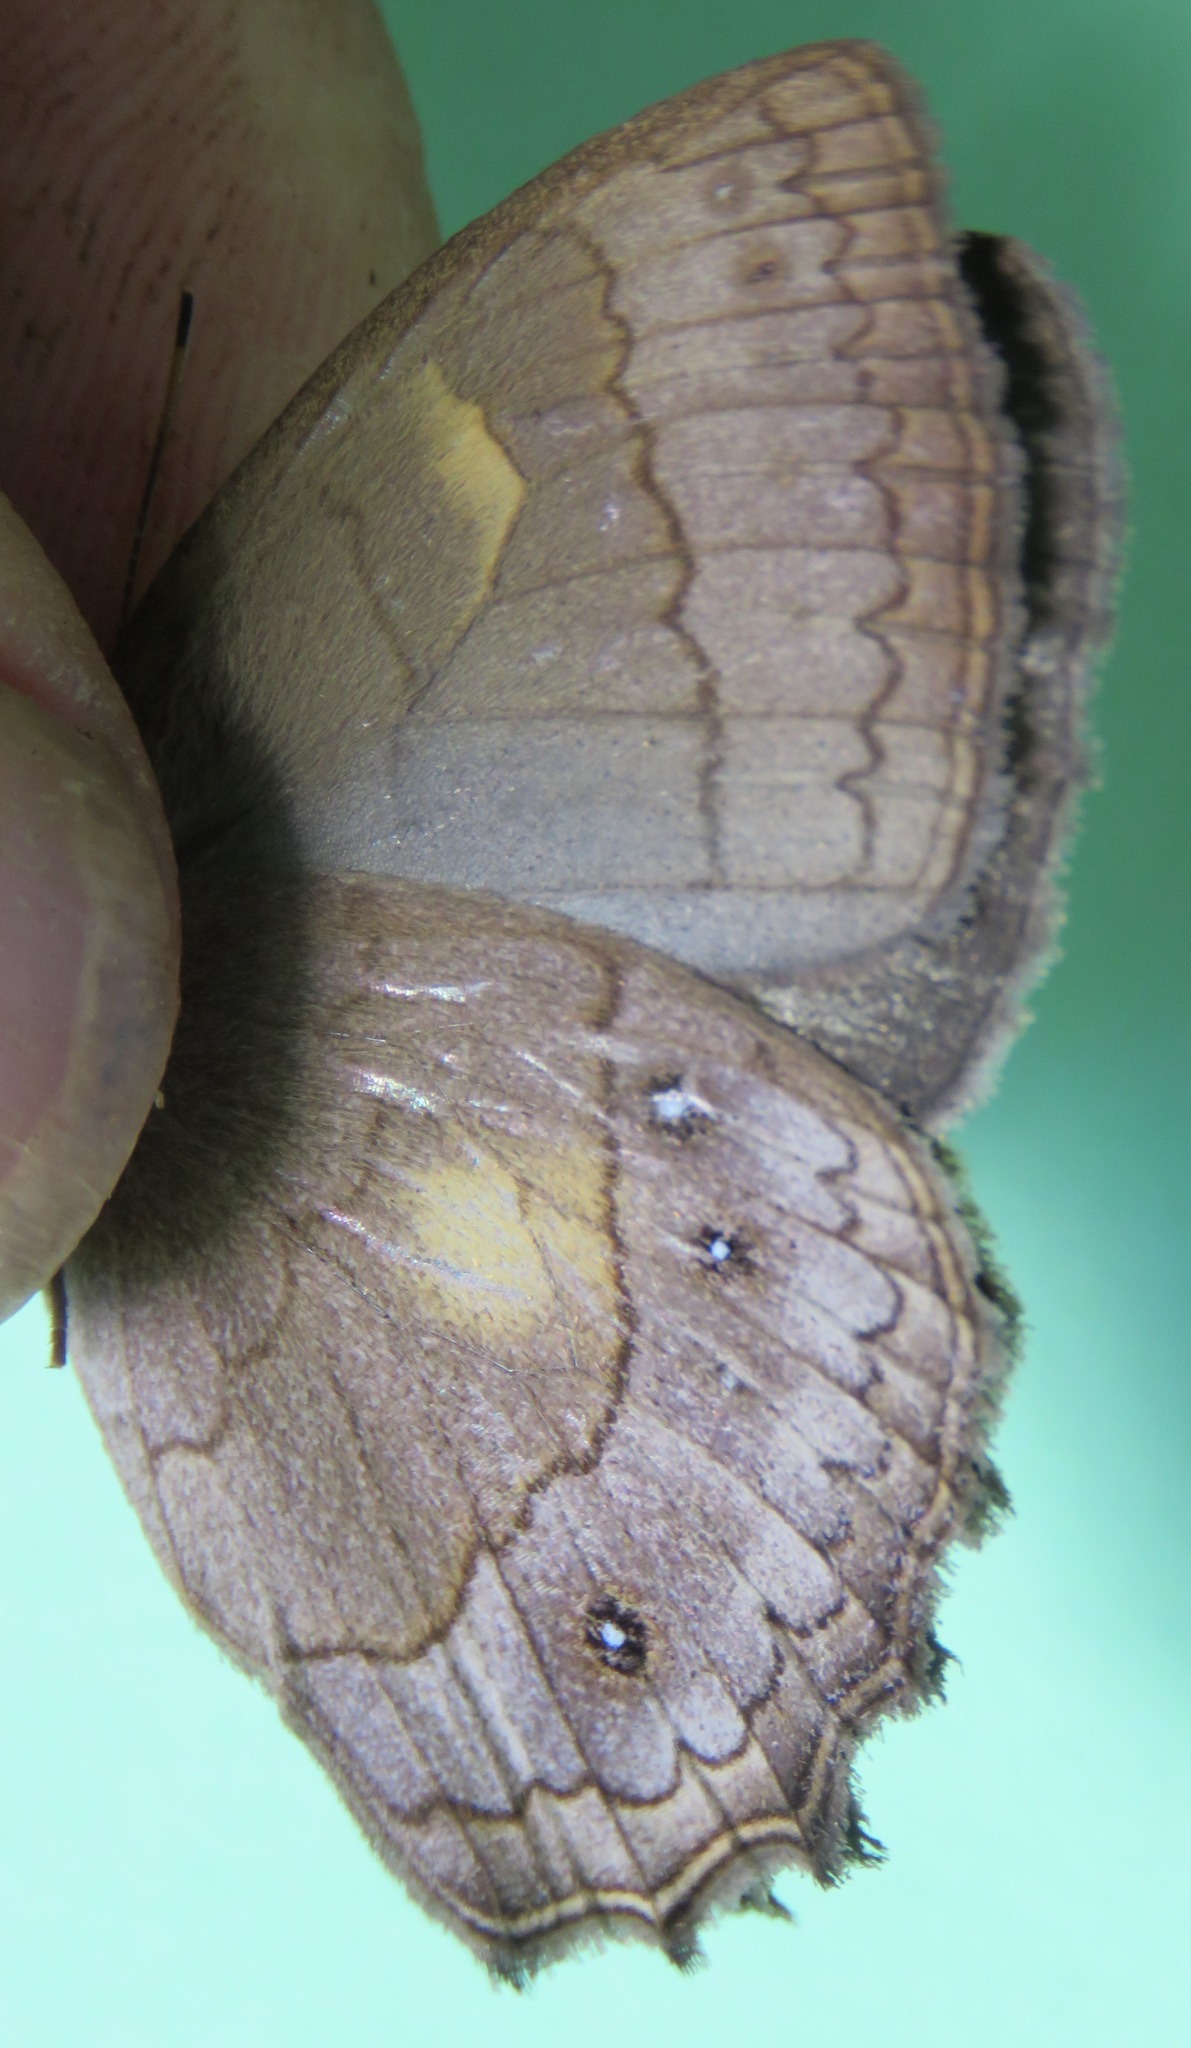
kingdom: Animalia
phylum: Arthropoda
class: Insecta
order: Lepidoptera
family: Nymphalidae
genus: Taygetina
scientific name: Taygetina kerea
